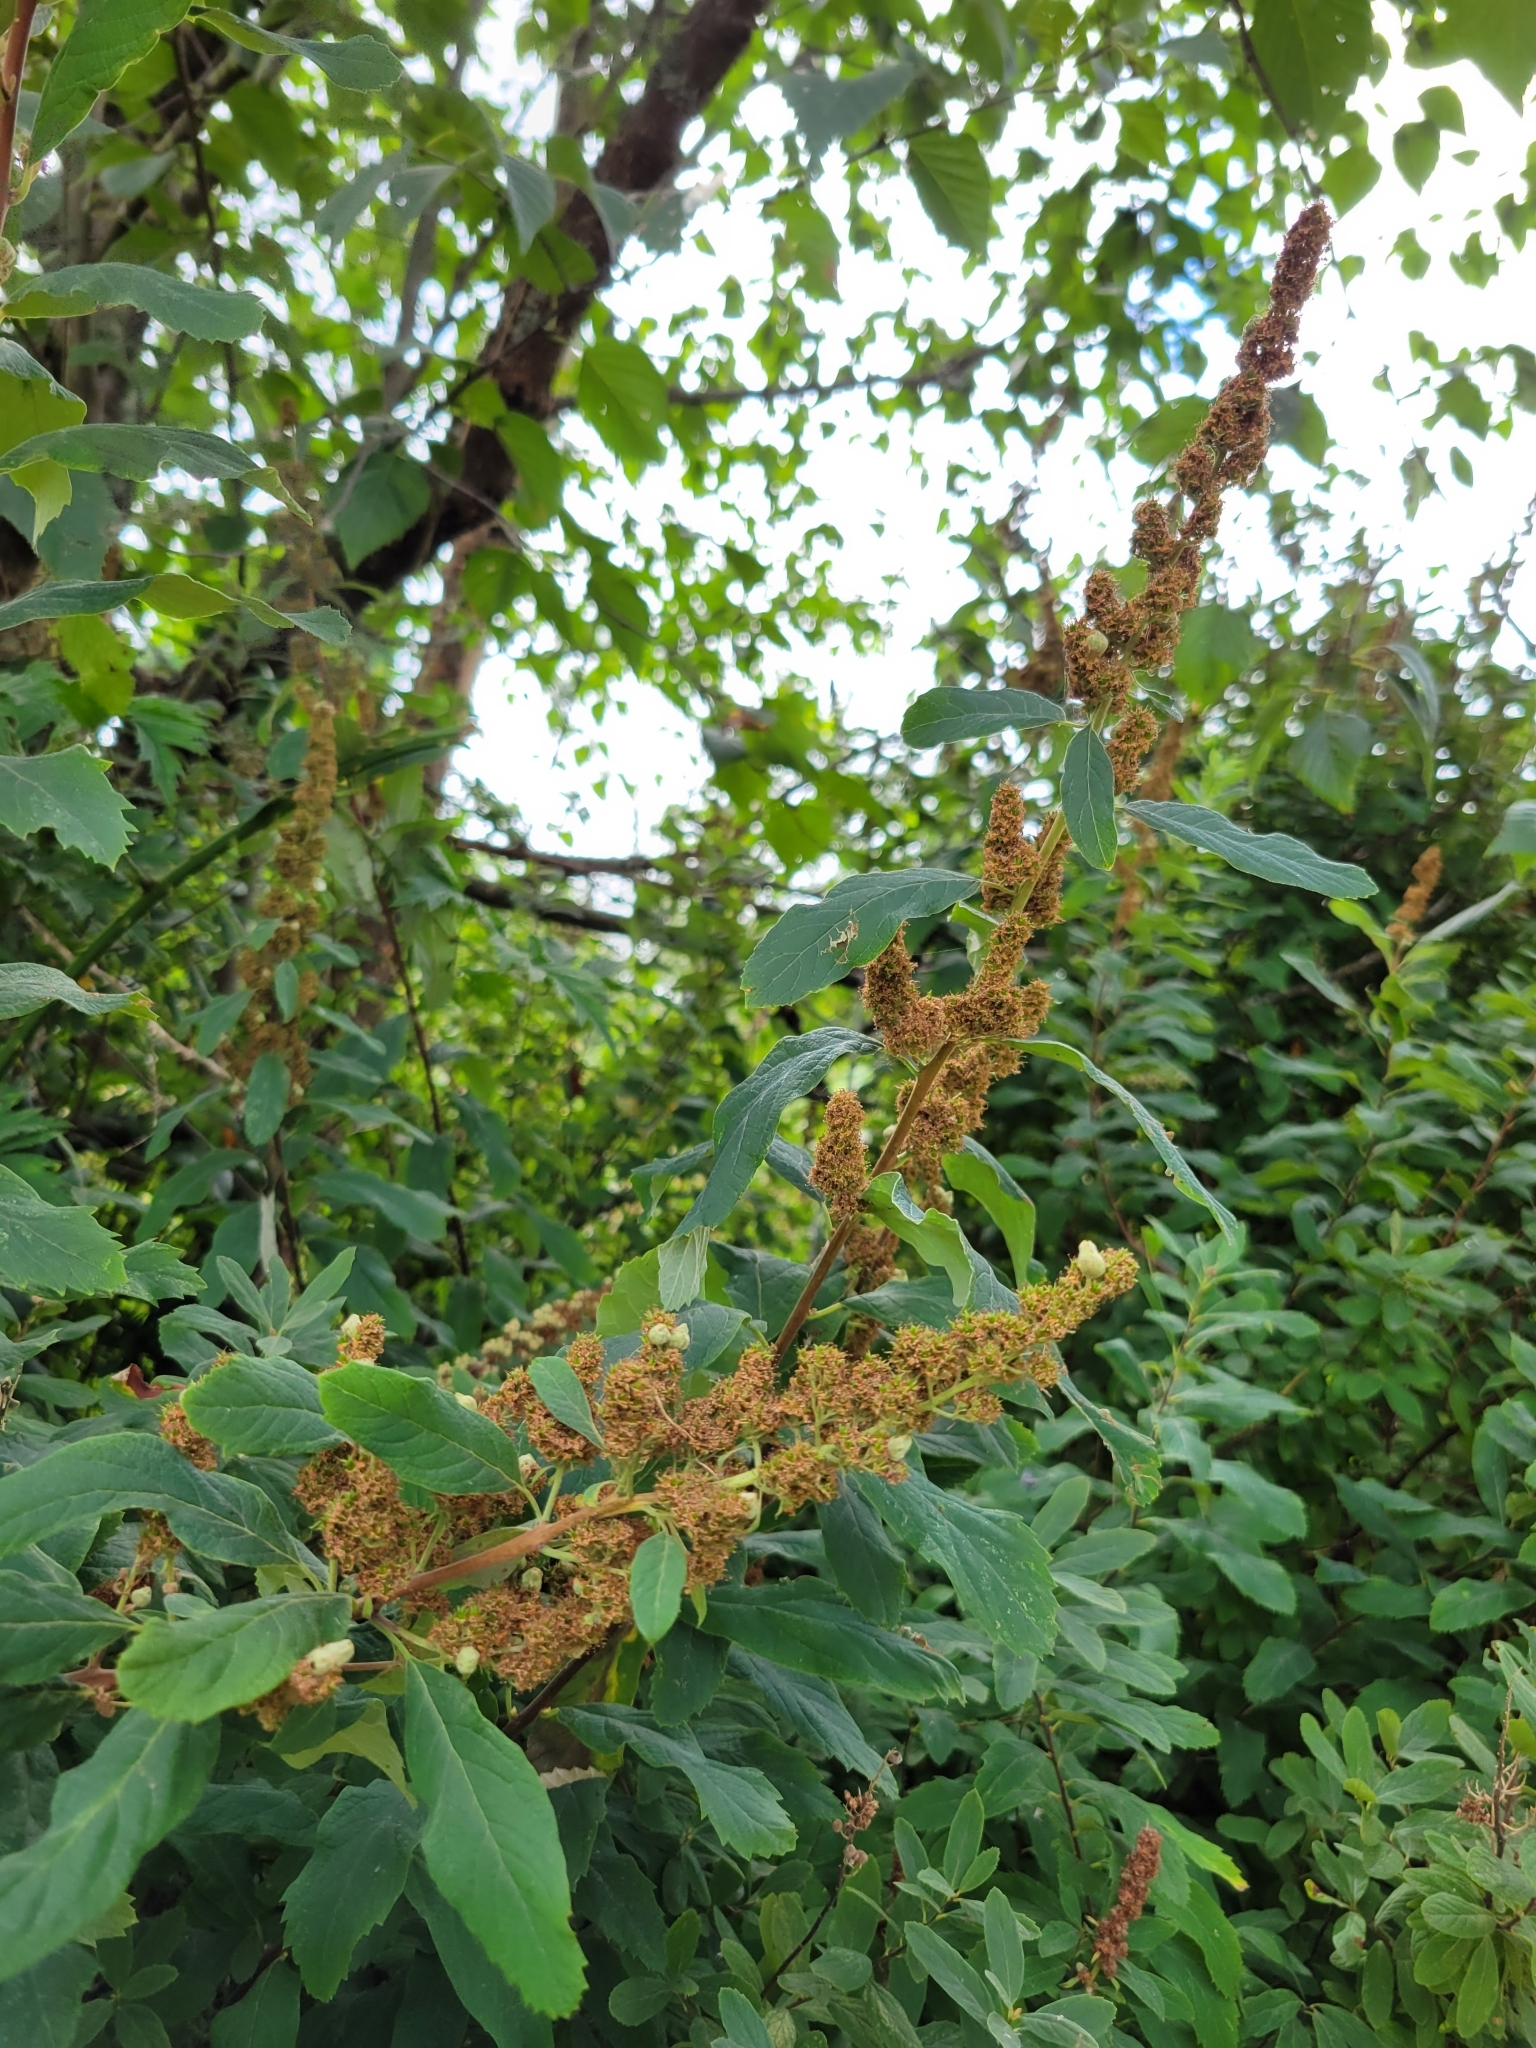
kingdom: Plantae
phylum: Tracheophyta
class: Magnoliopsida
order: Rosales
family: Rosaceae
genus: Spiraea
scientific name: Spiraea douglasii
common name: Steeplebush
